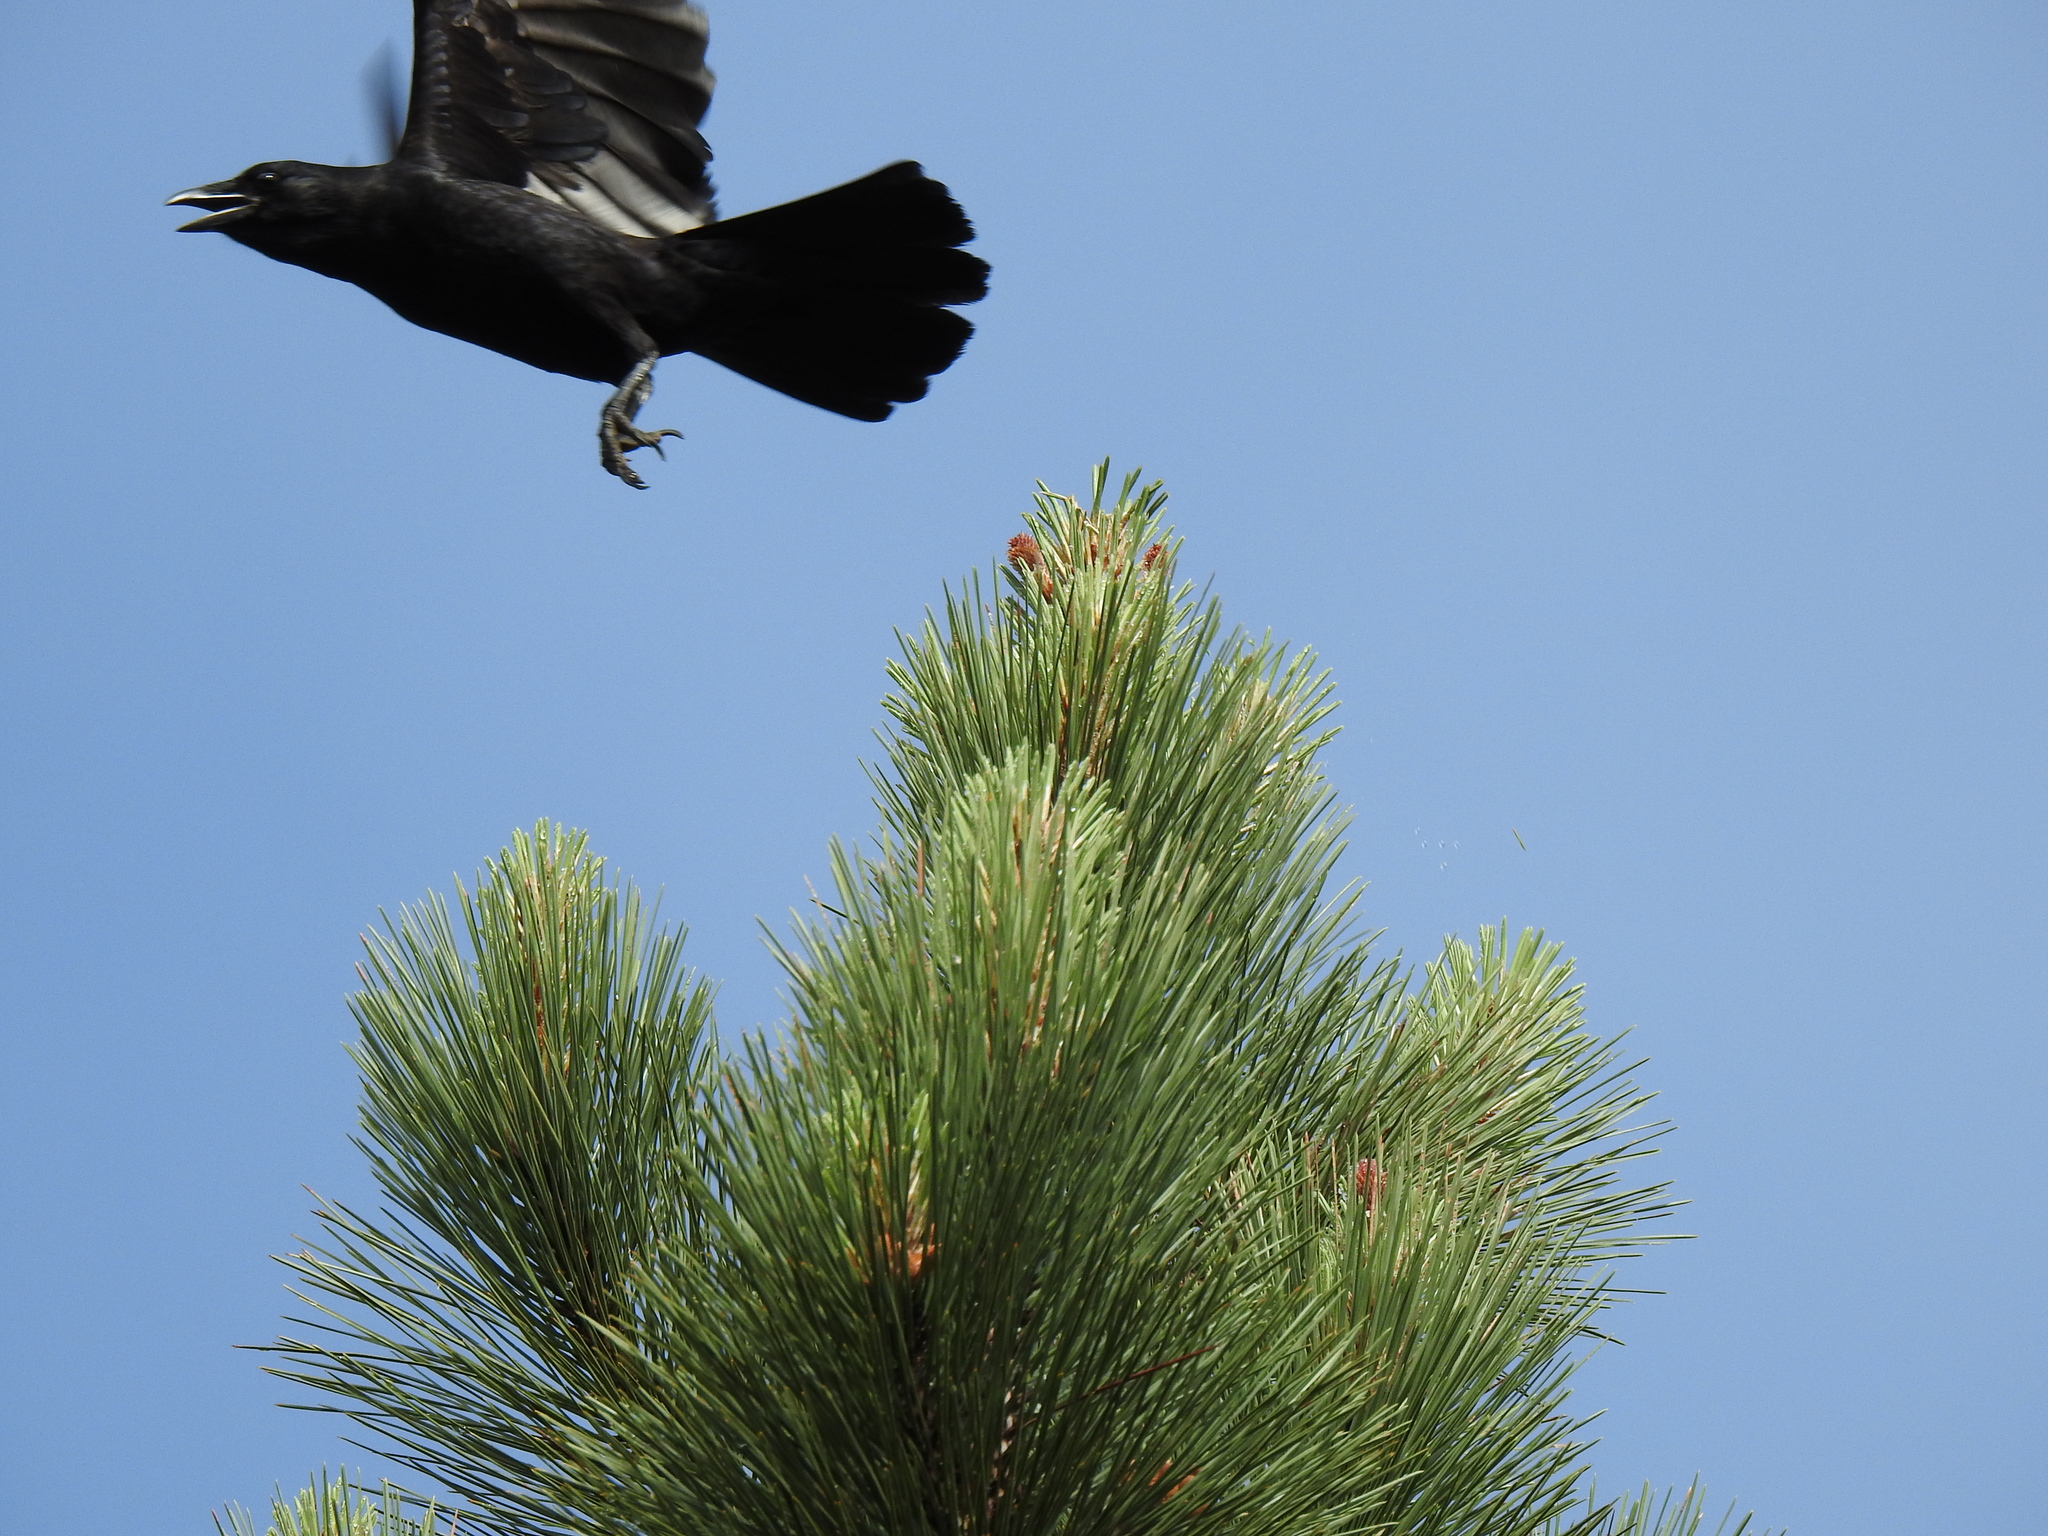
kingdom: Animalia
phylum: Chordata
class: Aves
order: Passeriformes
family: Corvidae
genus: Corvus
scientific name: Corvus brachyrhynchos
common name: American crow
